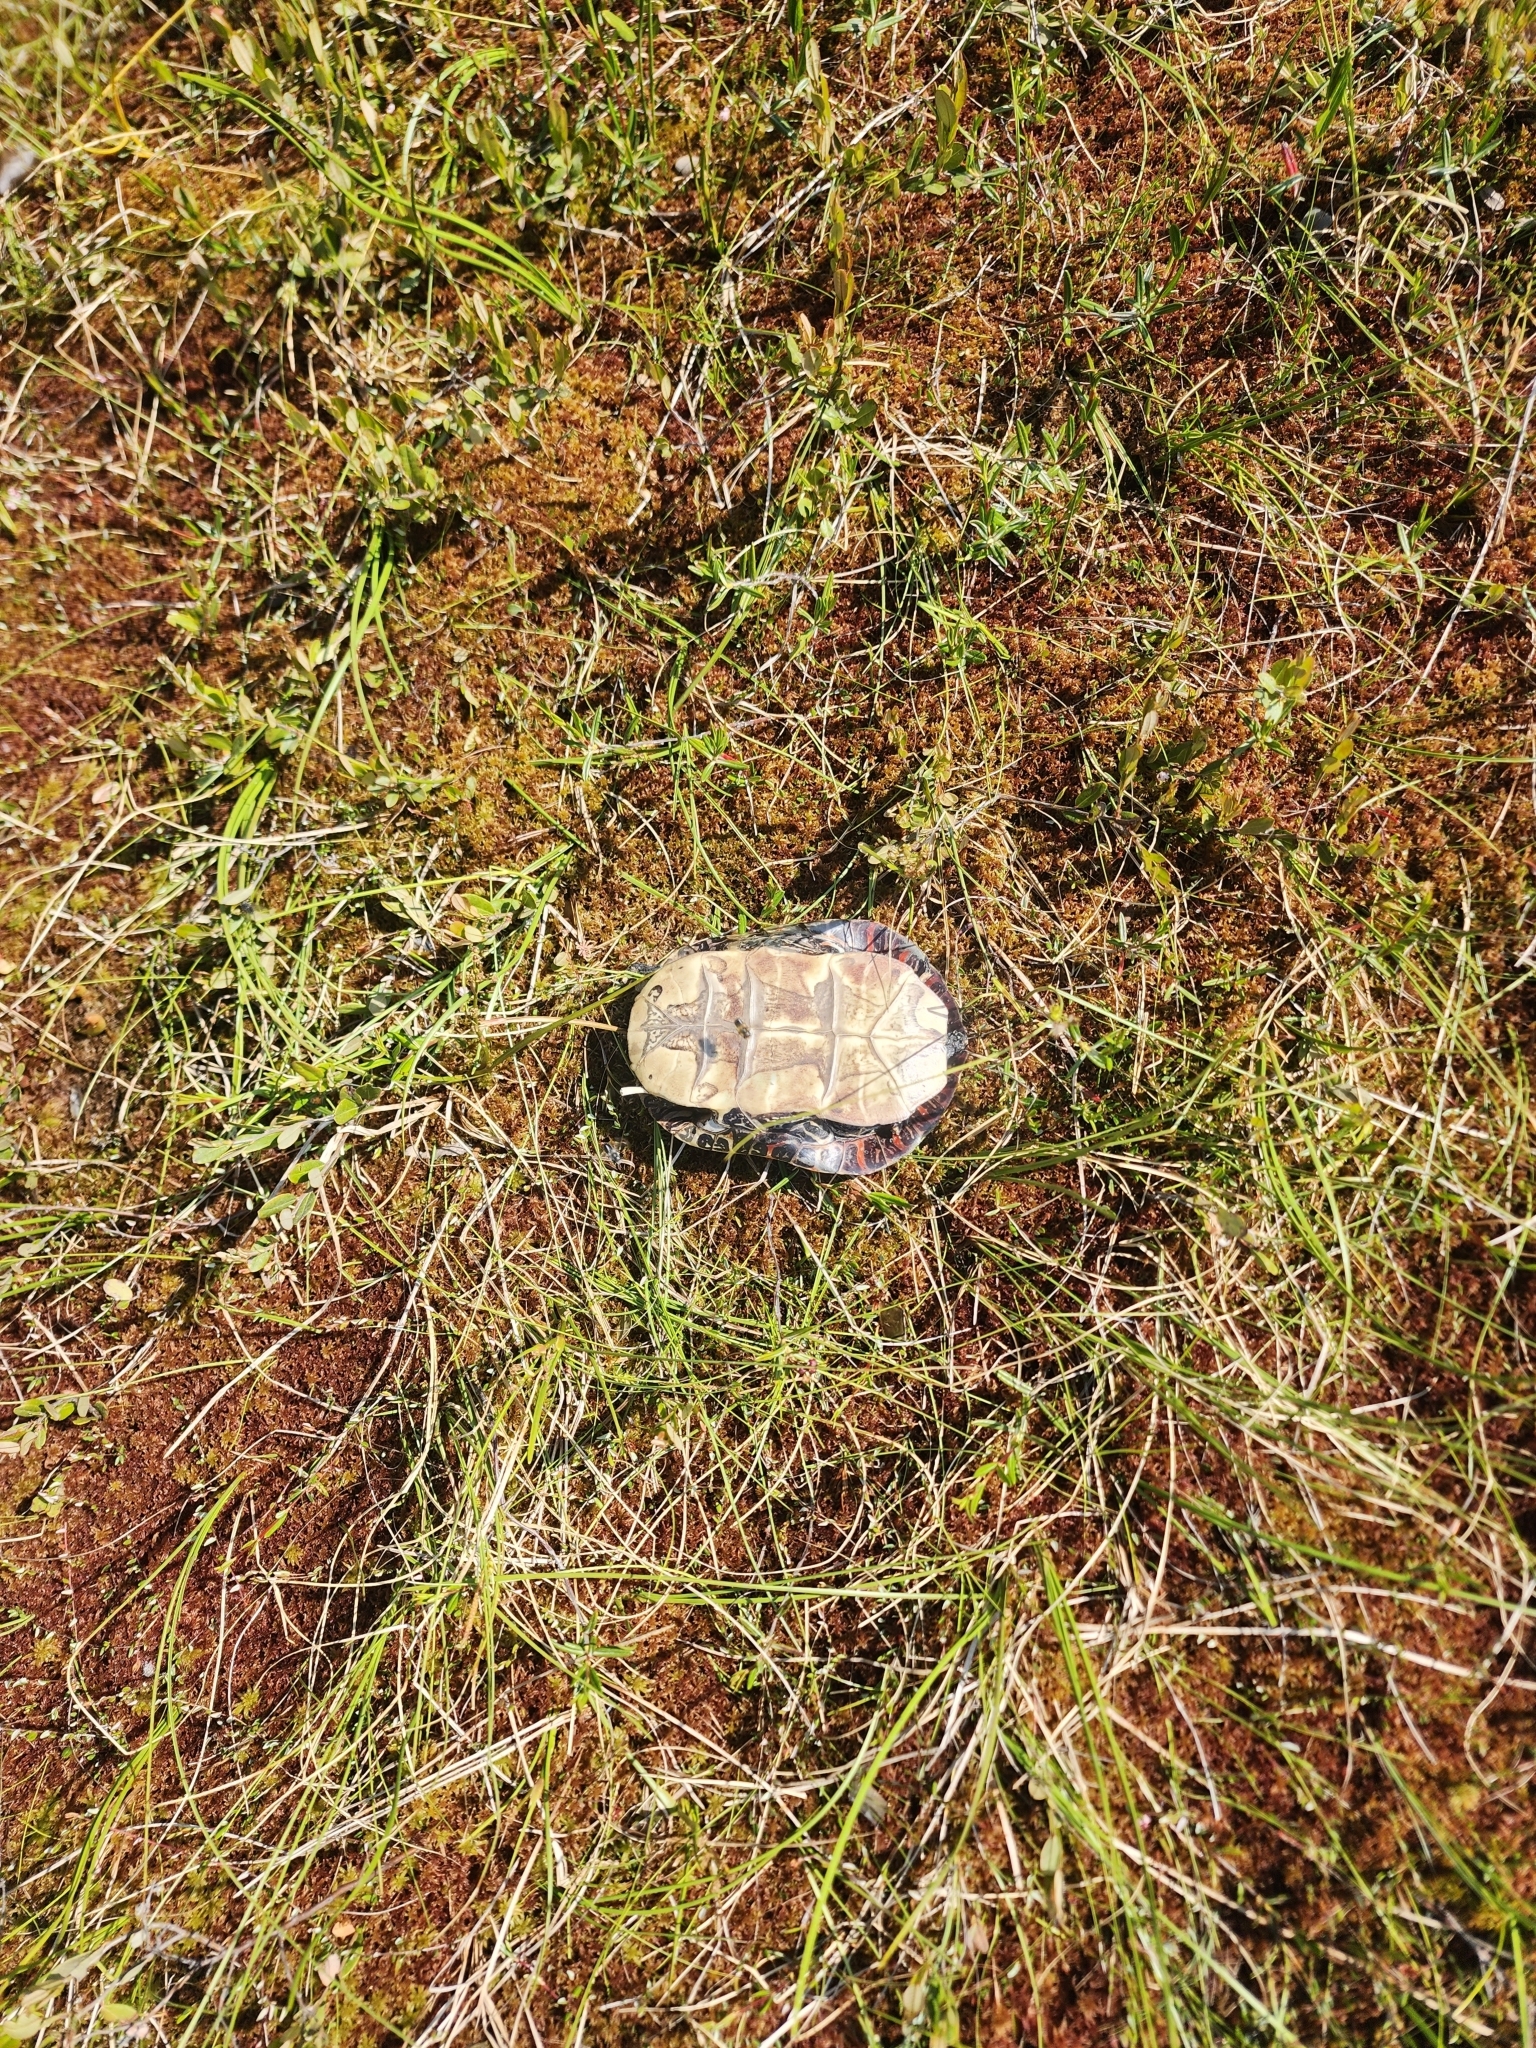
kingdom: Animalia
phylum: Chordata
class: Testudines
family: Emydidae
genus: Chrysemys
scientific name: Chrysemys picta
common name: Painted turtle
